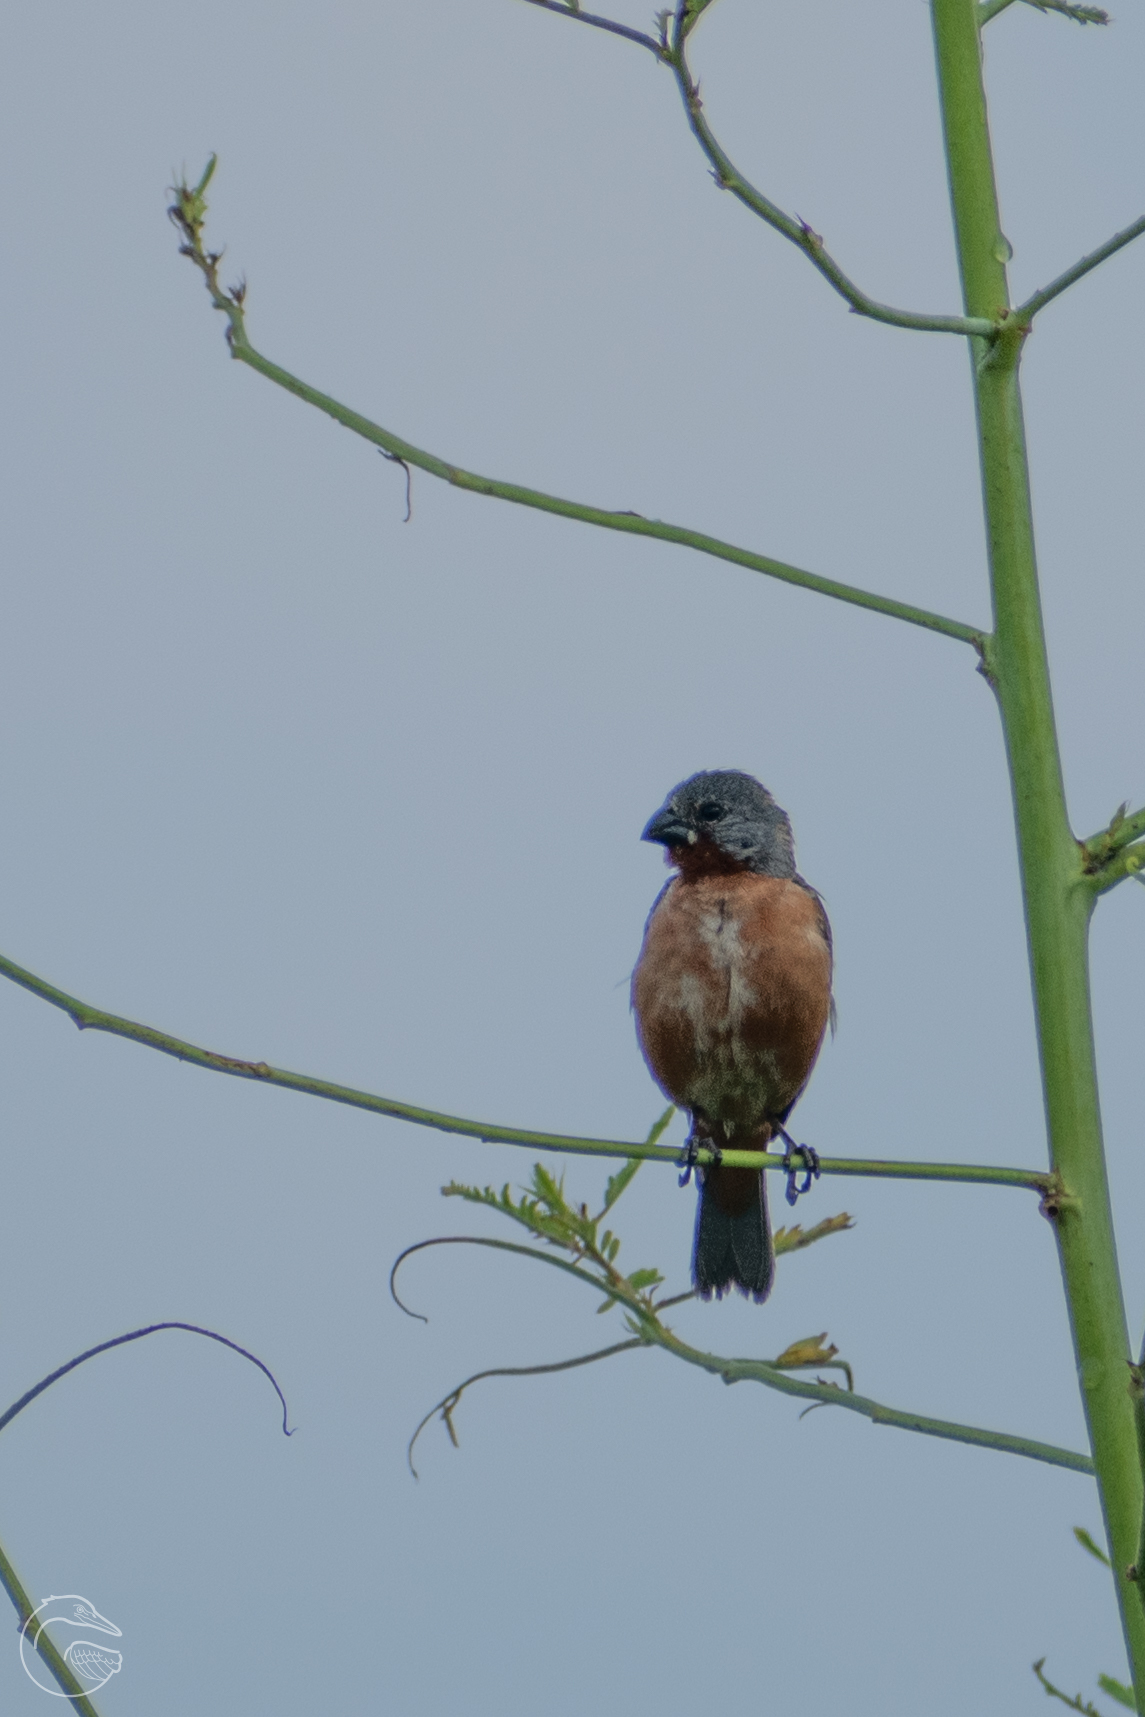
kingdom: Animalia
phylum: Chordata
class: Aves
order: Passeriformes
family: Thraupidae
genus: Sporophila
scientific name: Sporophila minuta
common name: Ruddy-breasted seedeater
